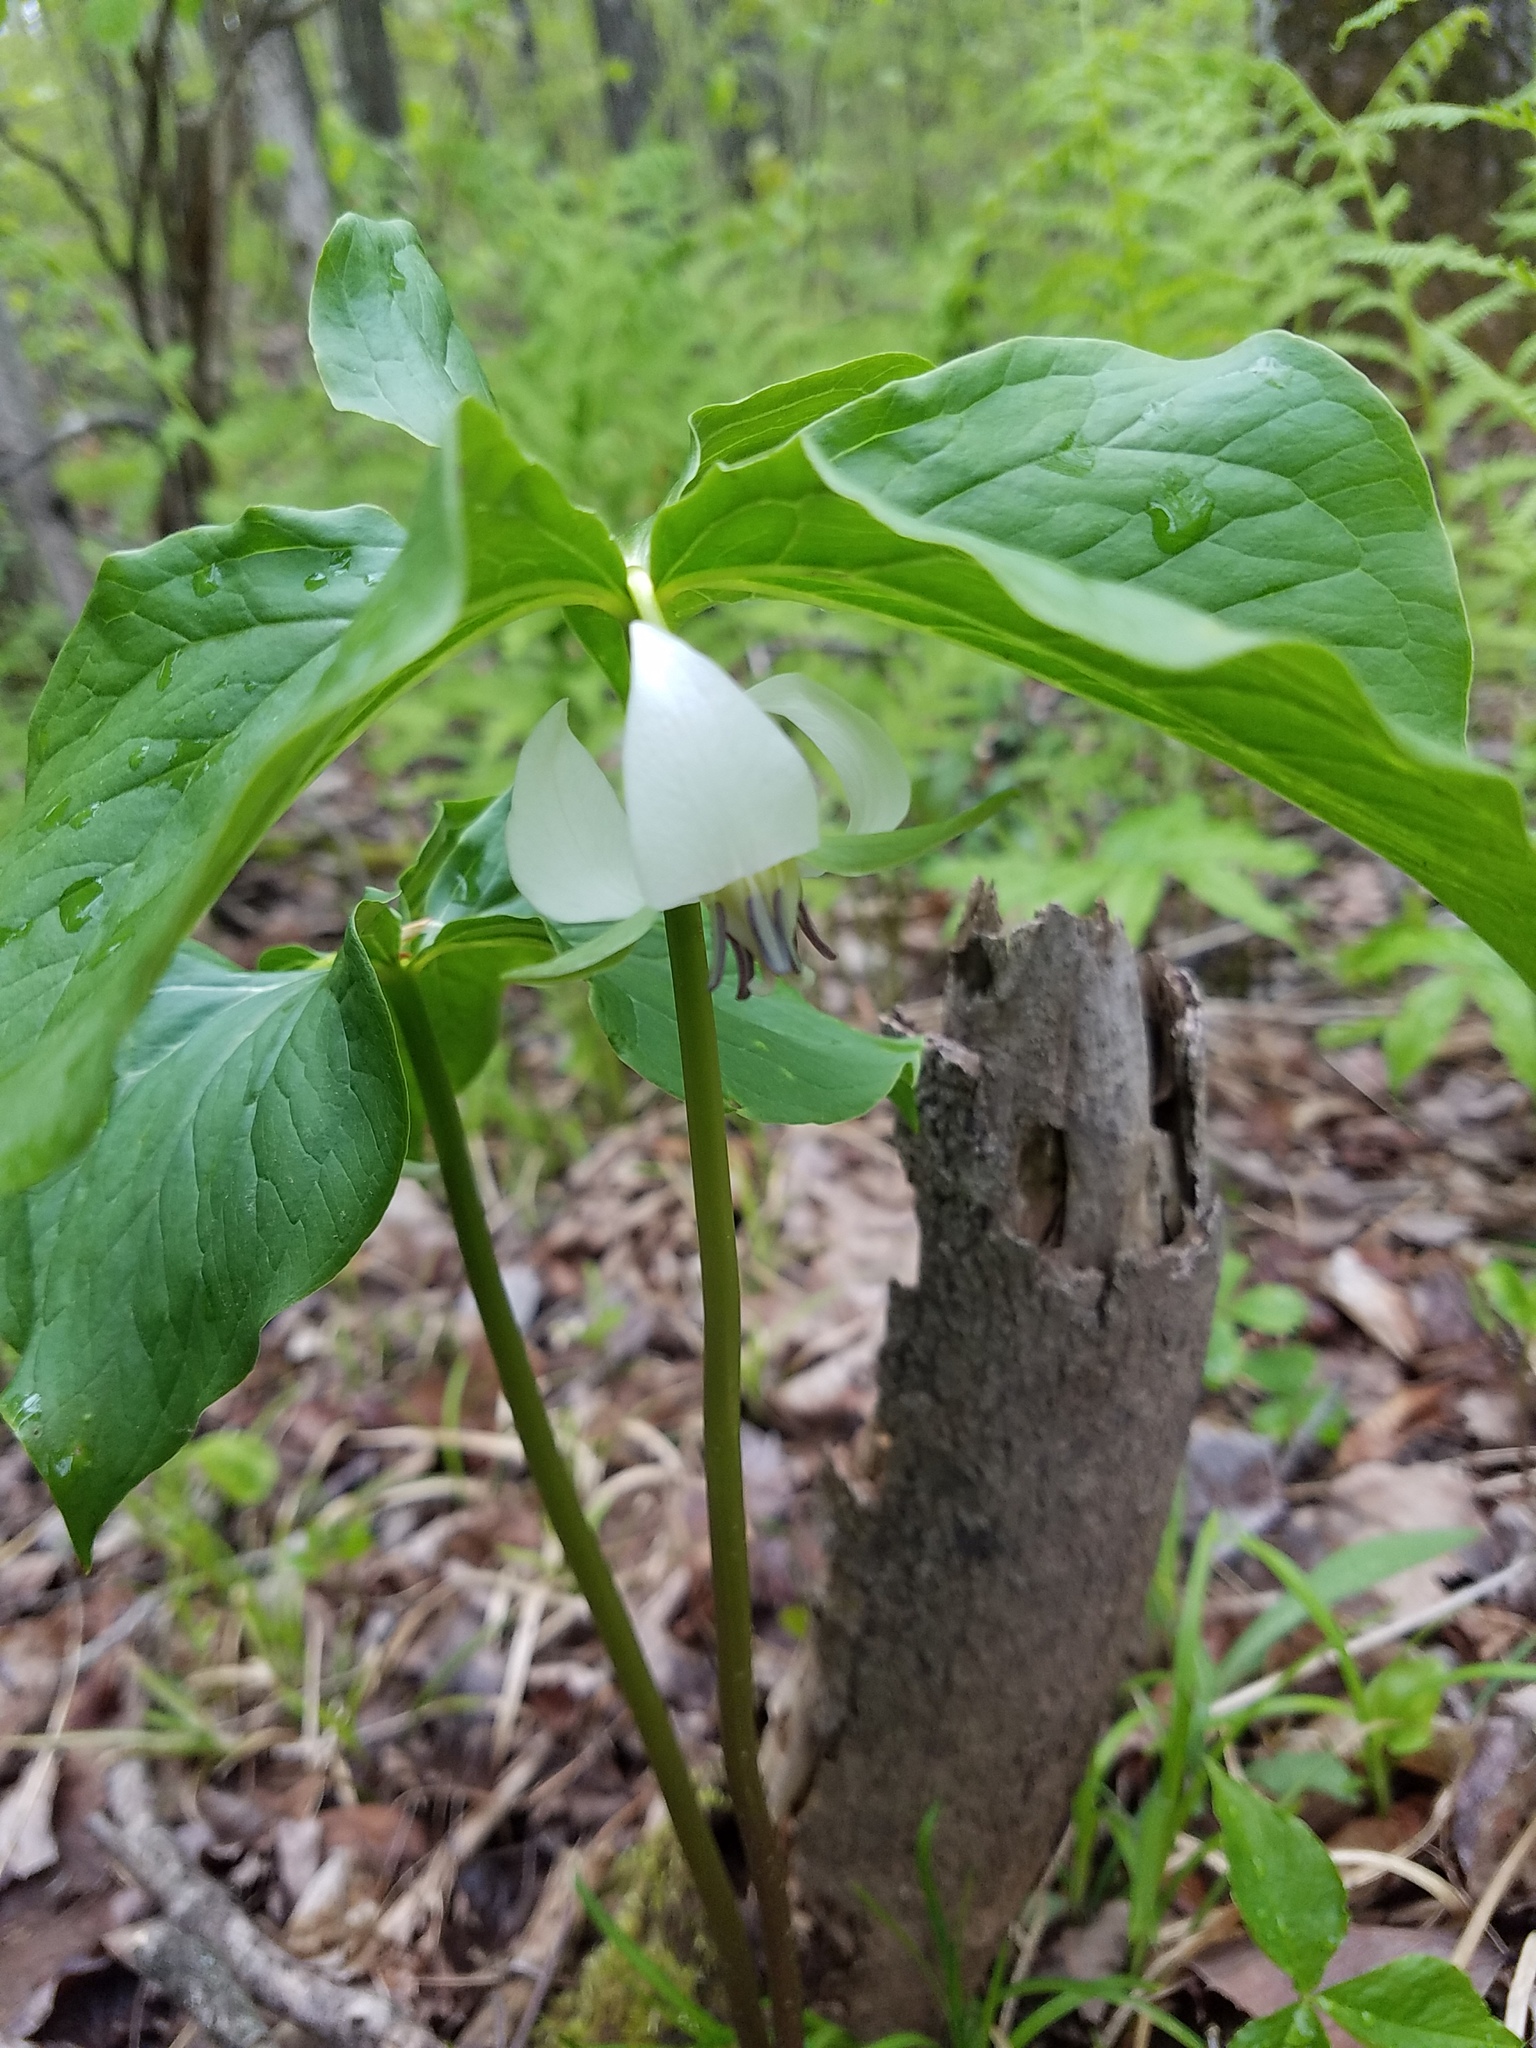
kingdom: Plantae
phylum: Tracheophyta
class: Liliopsida
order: Liliales
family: Melanthiaceae
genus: Trillium
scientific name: Trillium cernuum
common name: Nodding trillium
